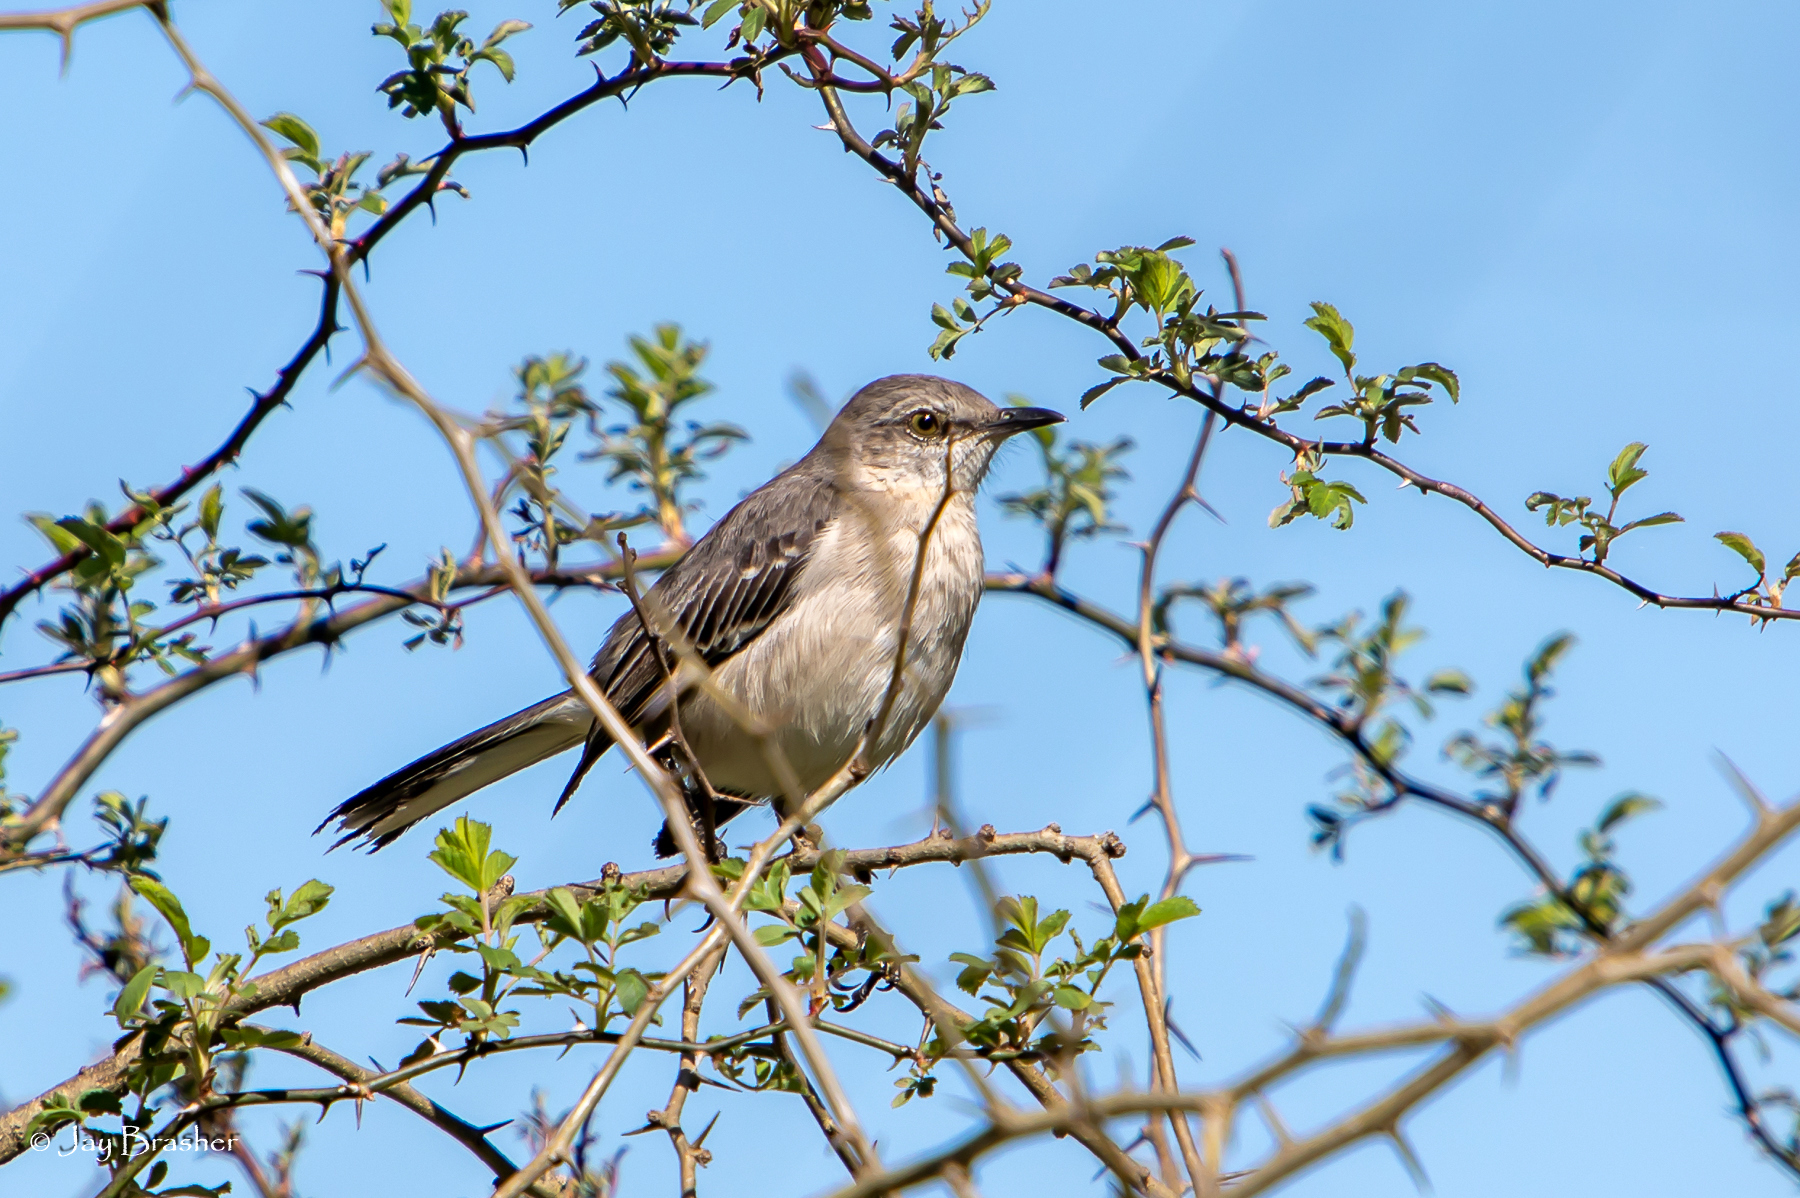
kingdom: Animalia
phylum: Chordata
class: Aves
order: Passeriformes
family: Mimidae
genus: Mimus
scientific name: Mimus polyglottos
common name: Northern mockingbird
